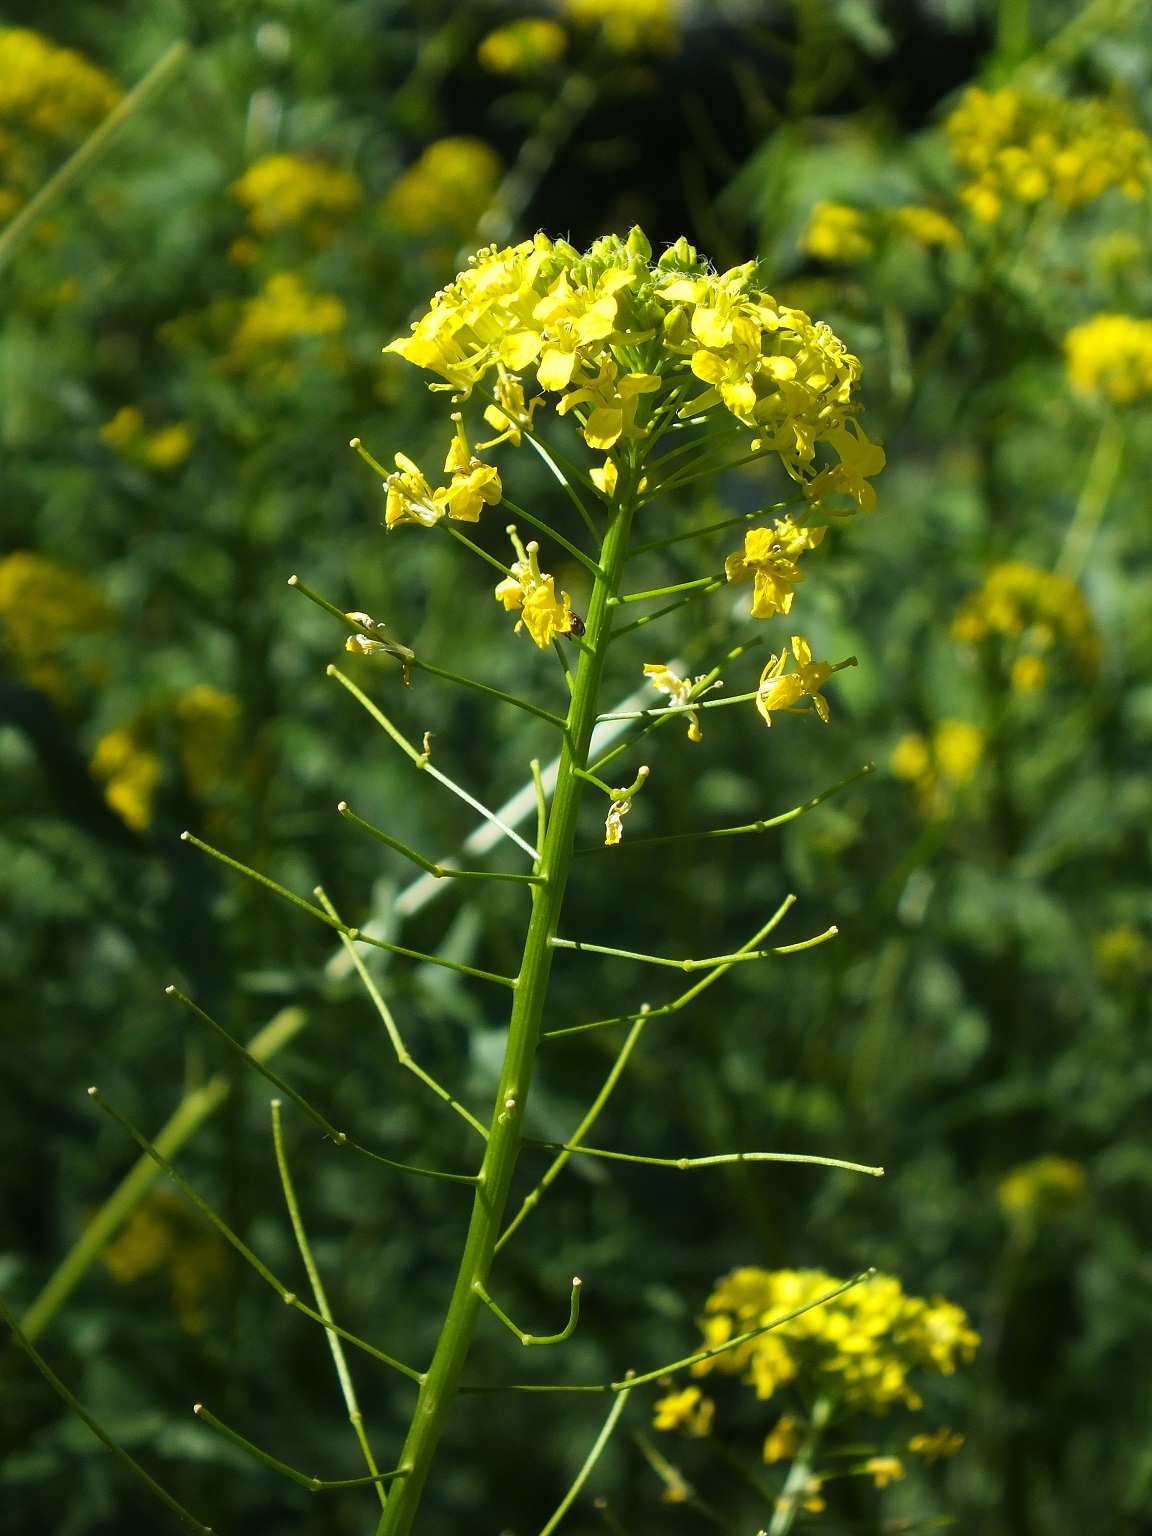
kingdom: Plantae
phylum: Tracheophyta
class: Magnoliopsida
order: Brassicales
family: Brassicaceae
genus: Rorippa
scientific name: Rorippa austriaca
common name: Austrian yellow-cress
